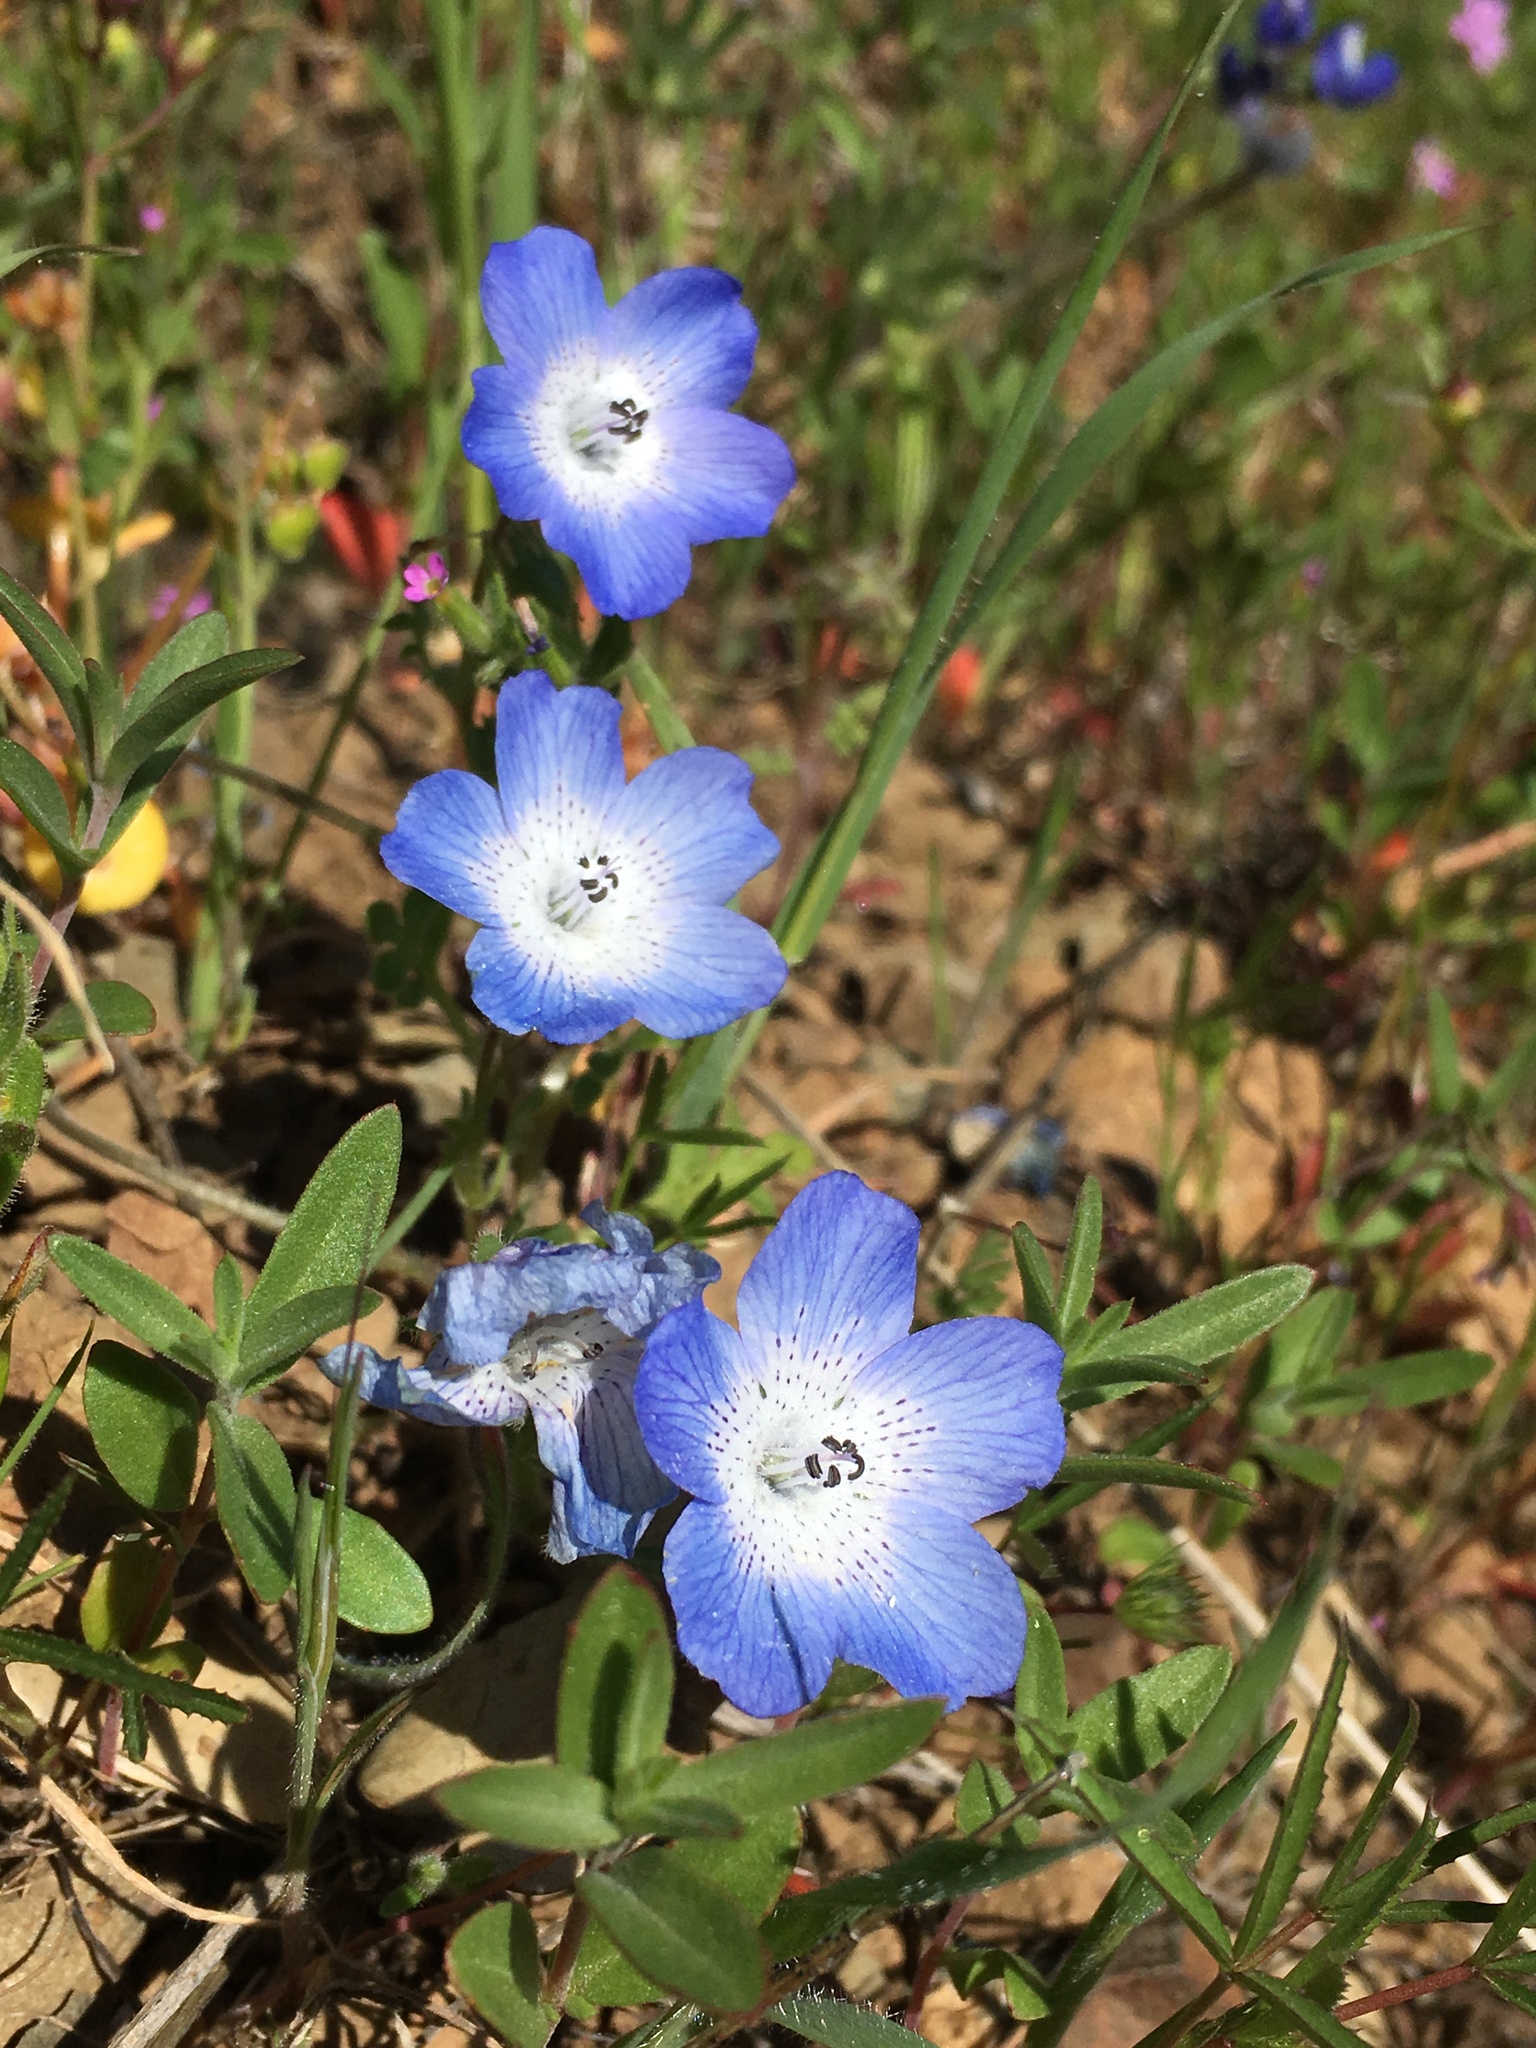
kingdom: Plantae
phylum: Tracheophyta
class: Magnoliopsida
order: Boraginales
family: Hydrophyllaceae
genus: Nemophila
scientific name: Nemophila menziesii
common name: Baby's-blue-eyes
